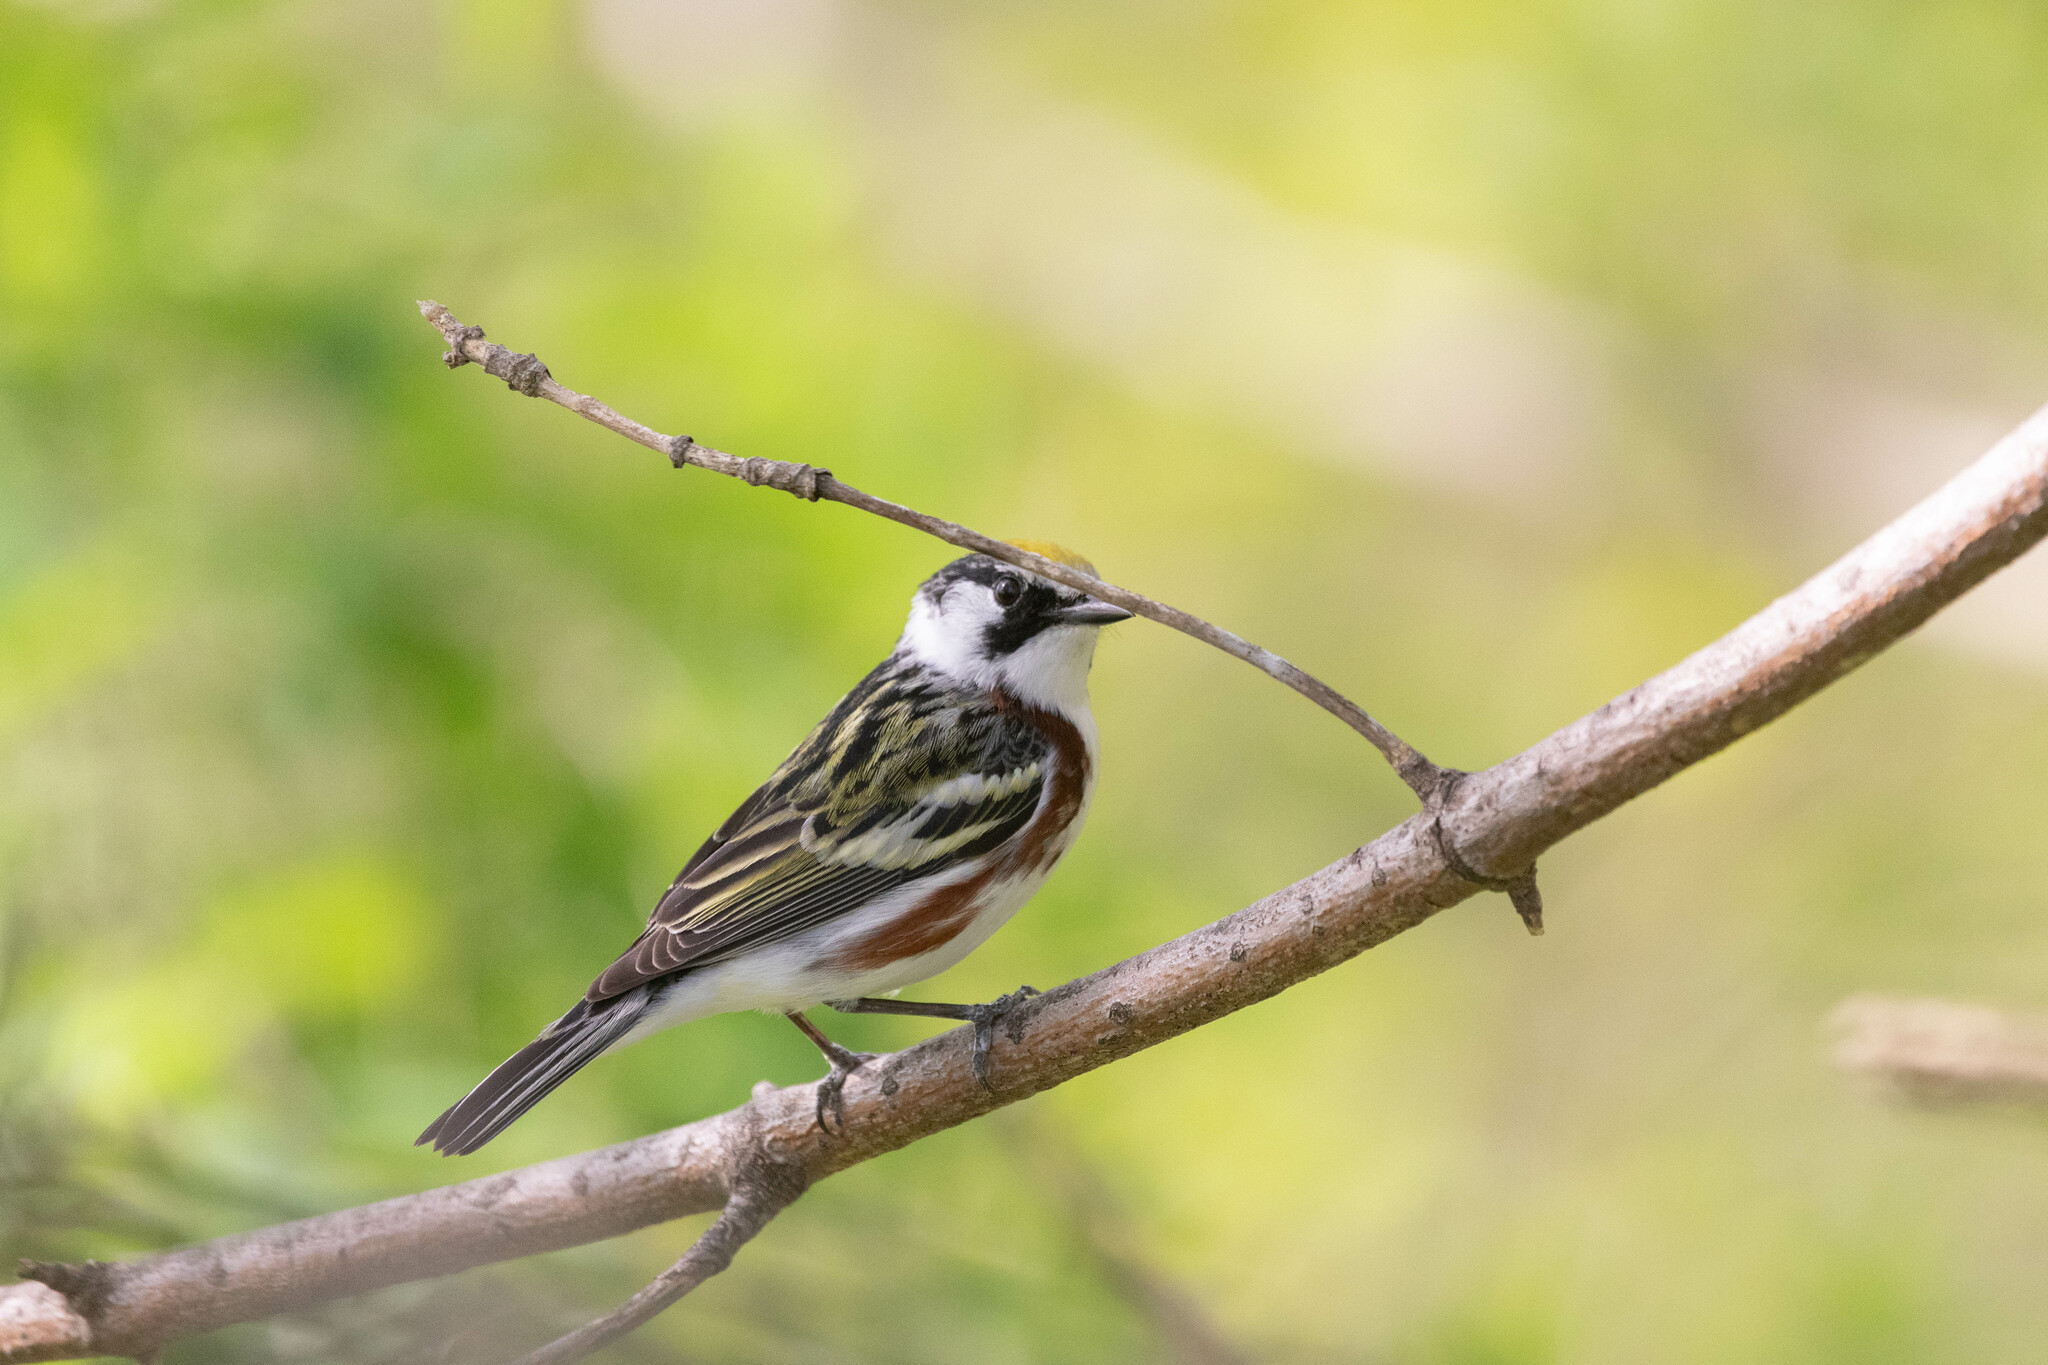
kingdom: Animalia
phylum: Chordata
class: Aves
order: Passeriformes
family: Parulidae
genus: Setophaga
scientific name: Setophaga pensylvanica
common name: Chestnut-sided warbler
